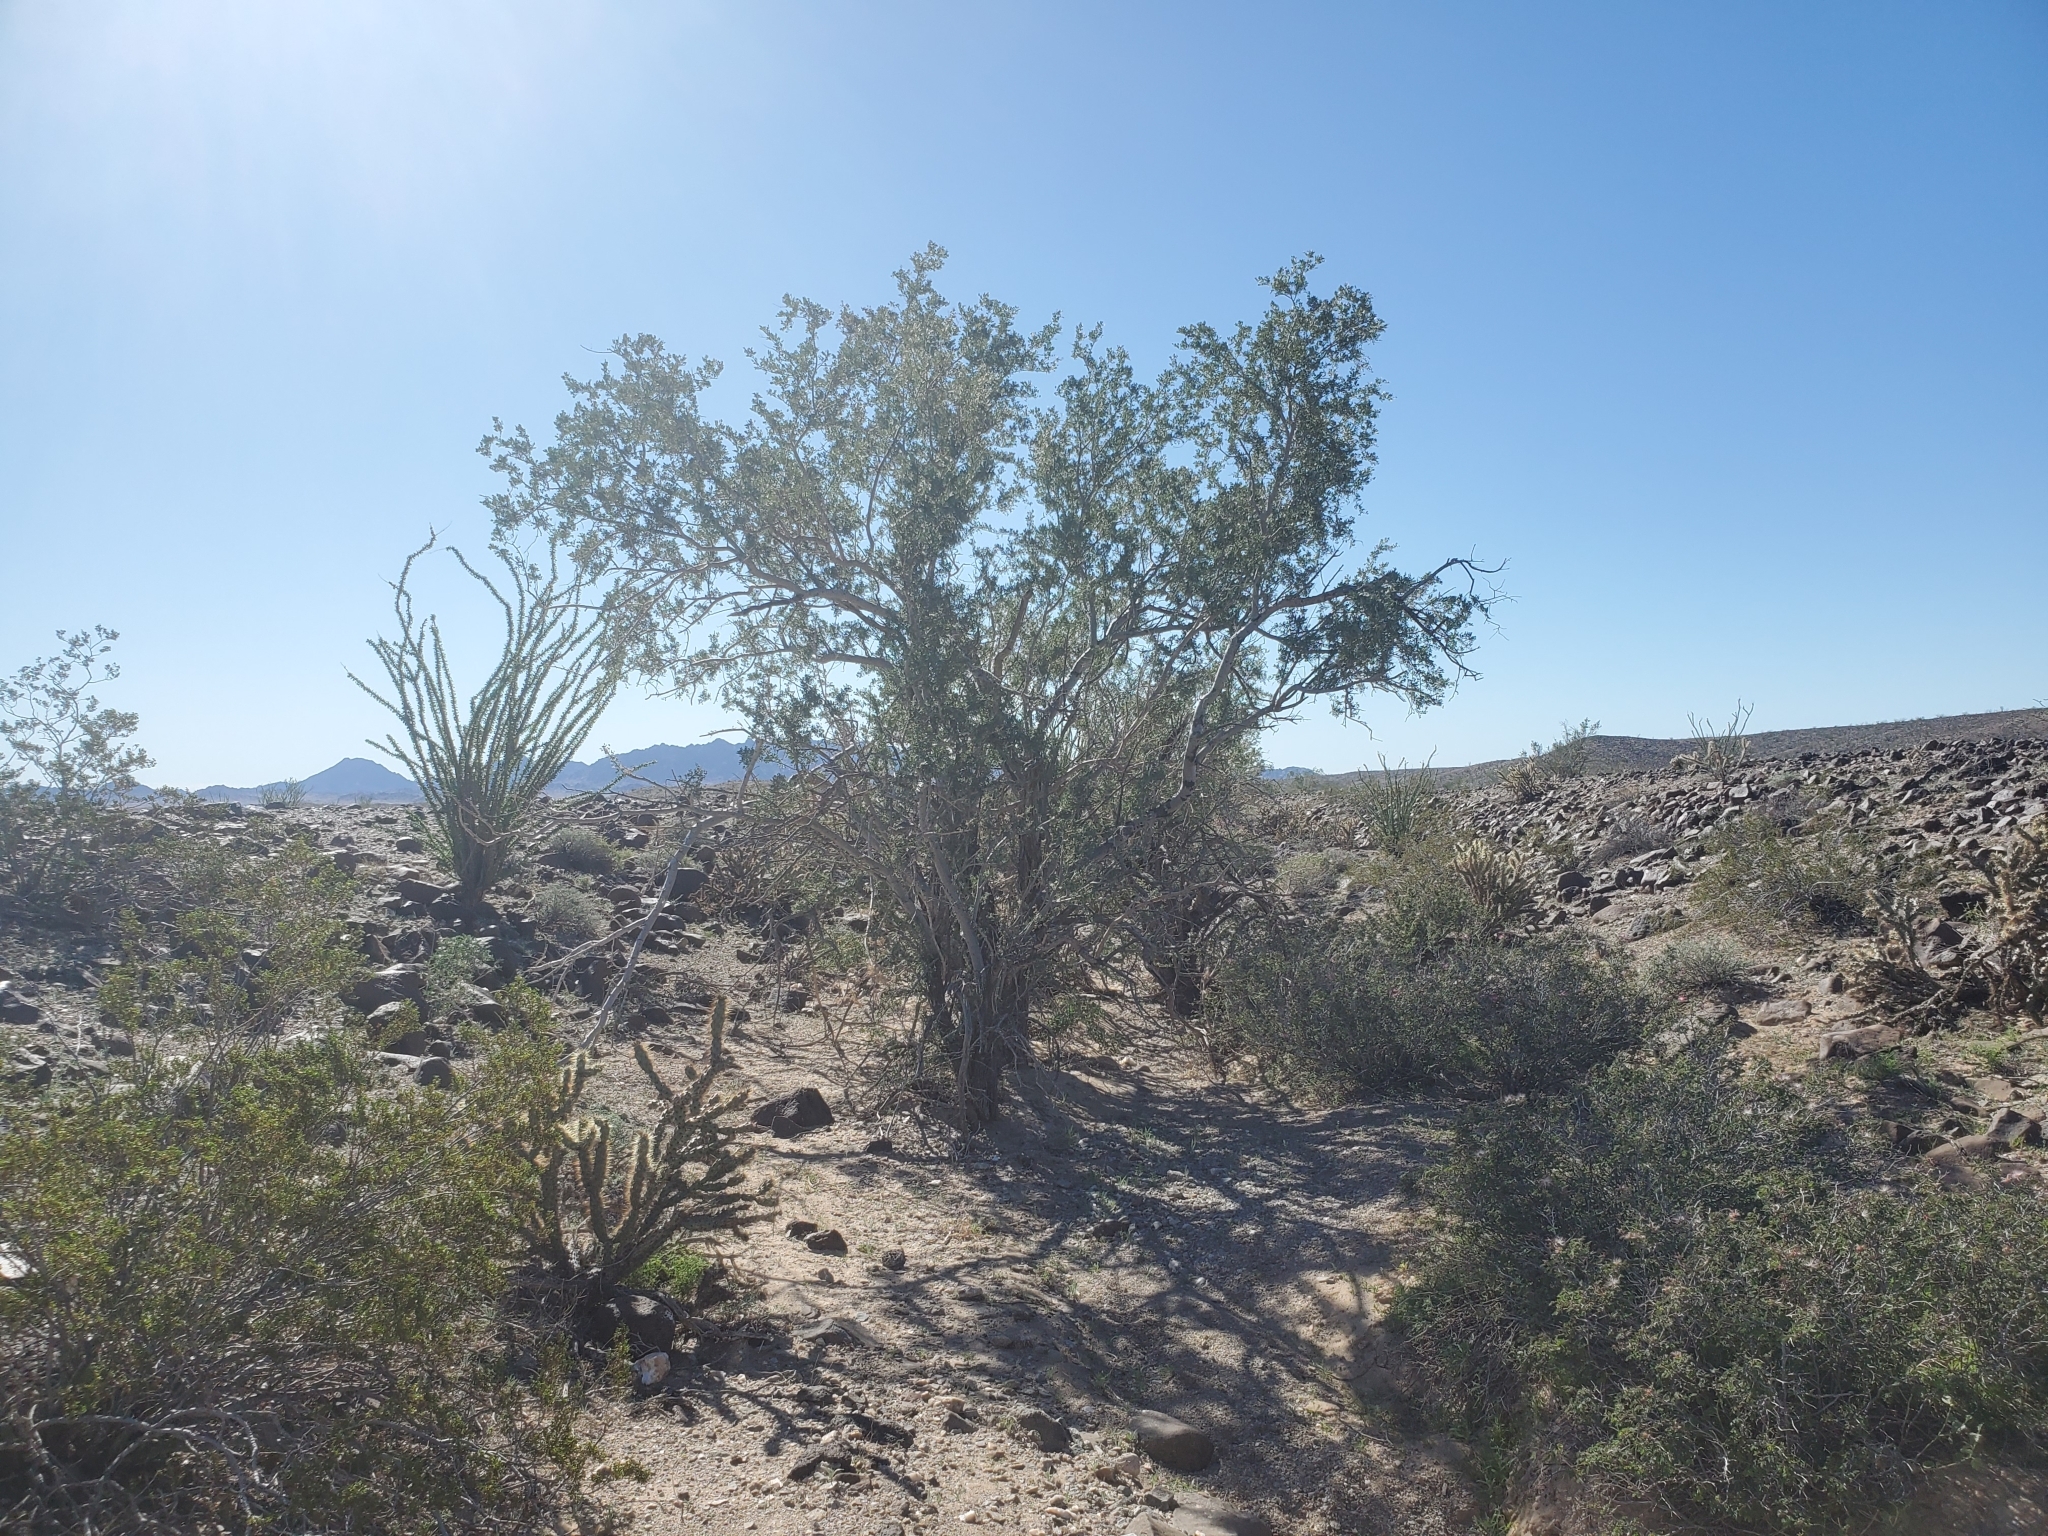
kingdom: Plantae
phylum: Tracheophyta
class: Magnoliopsida
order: Fabales
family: Fabaceae
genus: Olneya
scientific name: Olneya tesota
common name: Desert ironwood
